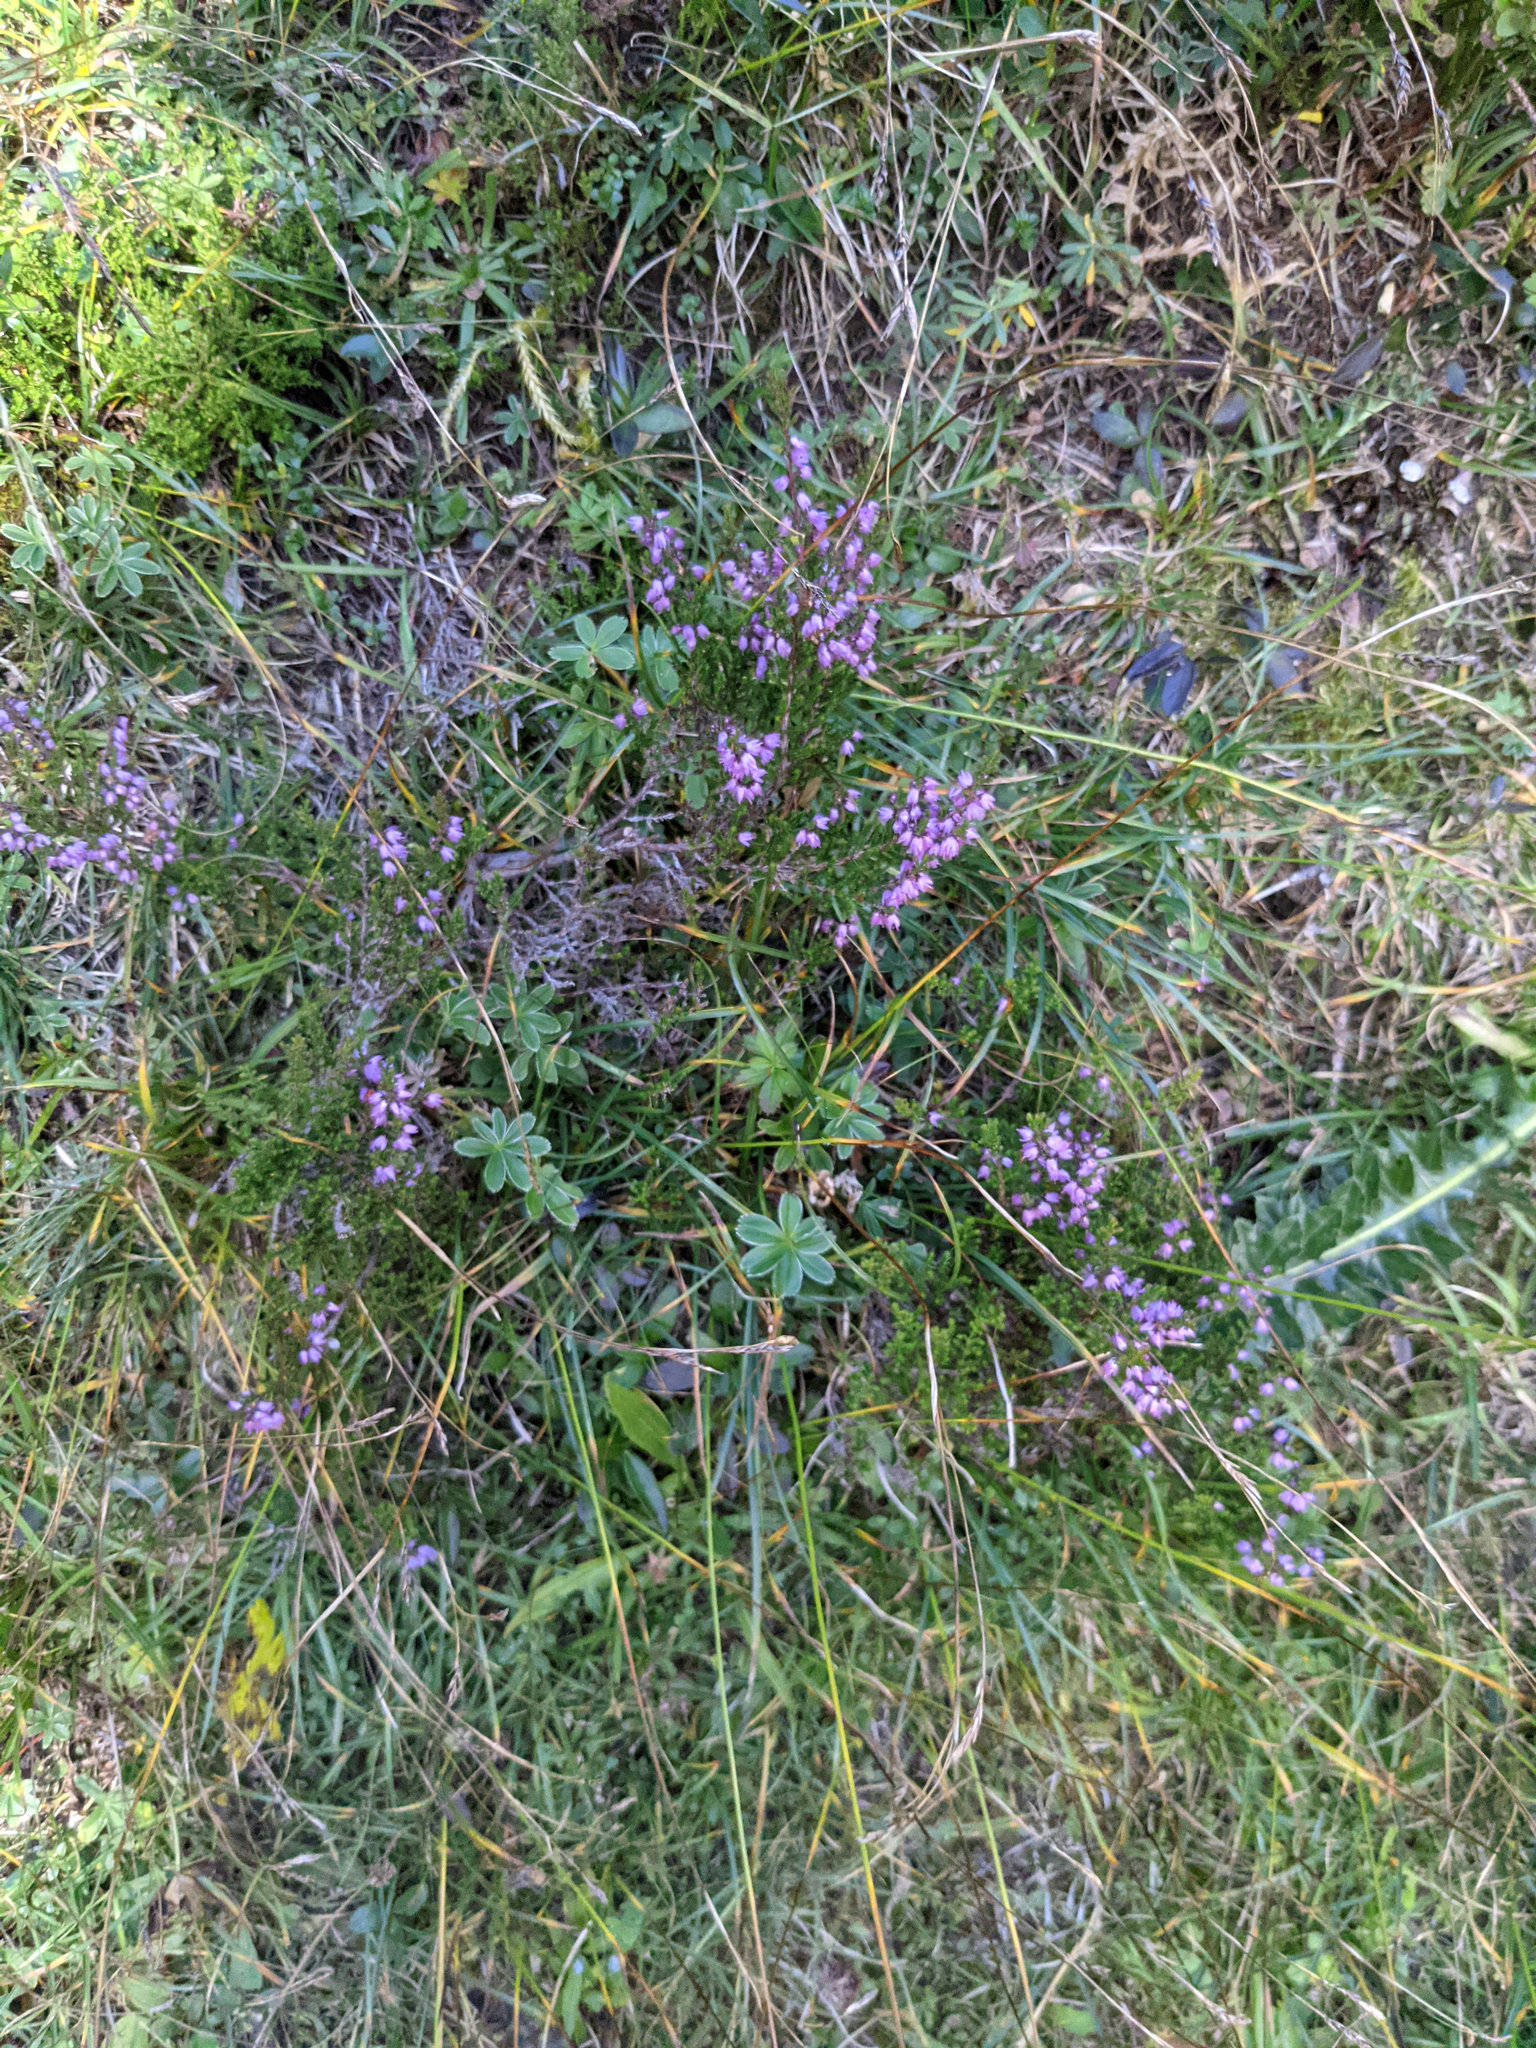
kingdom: Plantae
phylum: Tracheophyta
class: Magnoliopsida
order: Ericales
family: Ericaceae
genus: Calluna
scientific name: Calluna vulgaris
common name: Heather
